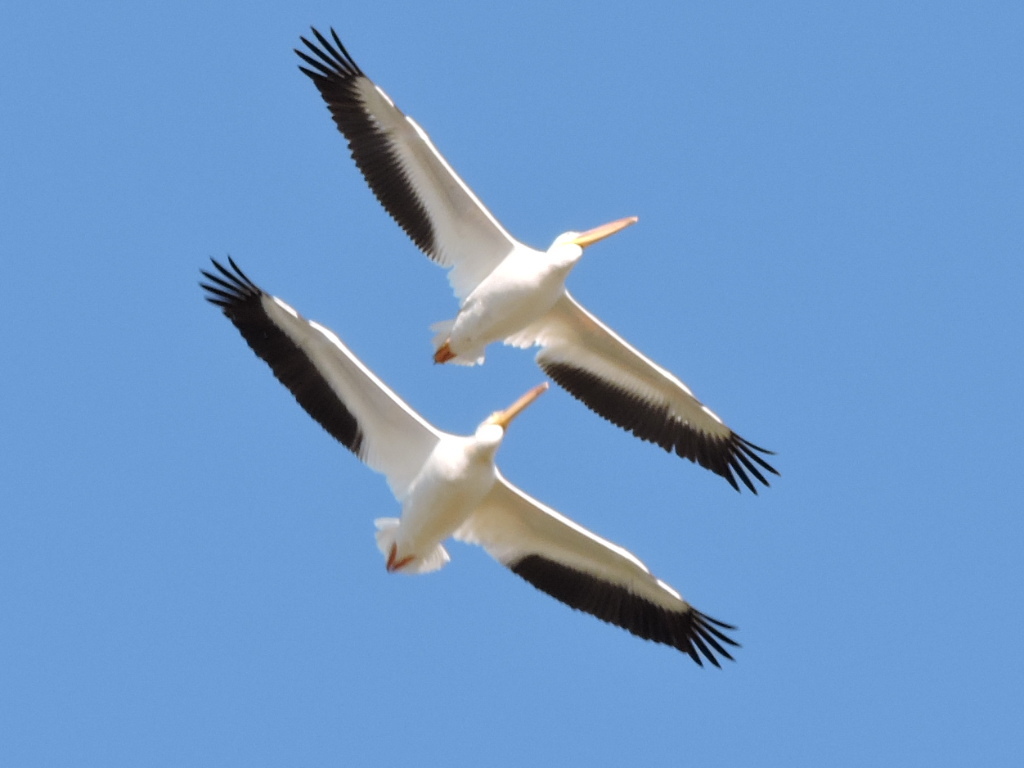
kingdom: Animalia
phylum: Chordata
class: Aves
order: Pelecaniformes
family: Pelecanidae
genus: Pelecanus
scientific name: Pelecanus erythrorhynchos
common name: American white pelican
